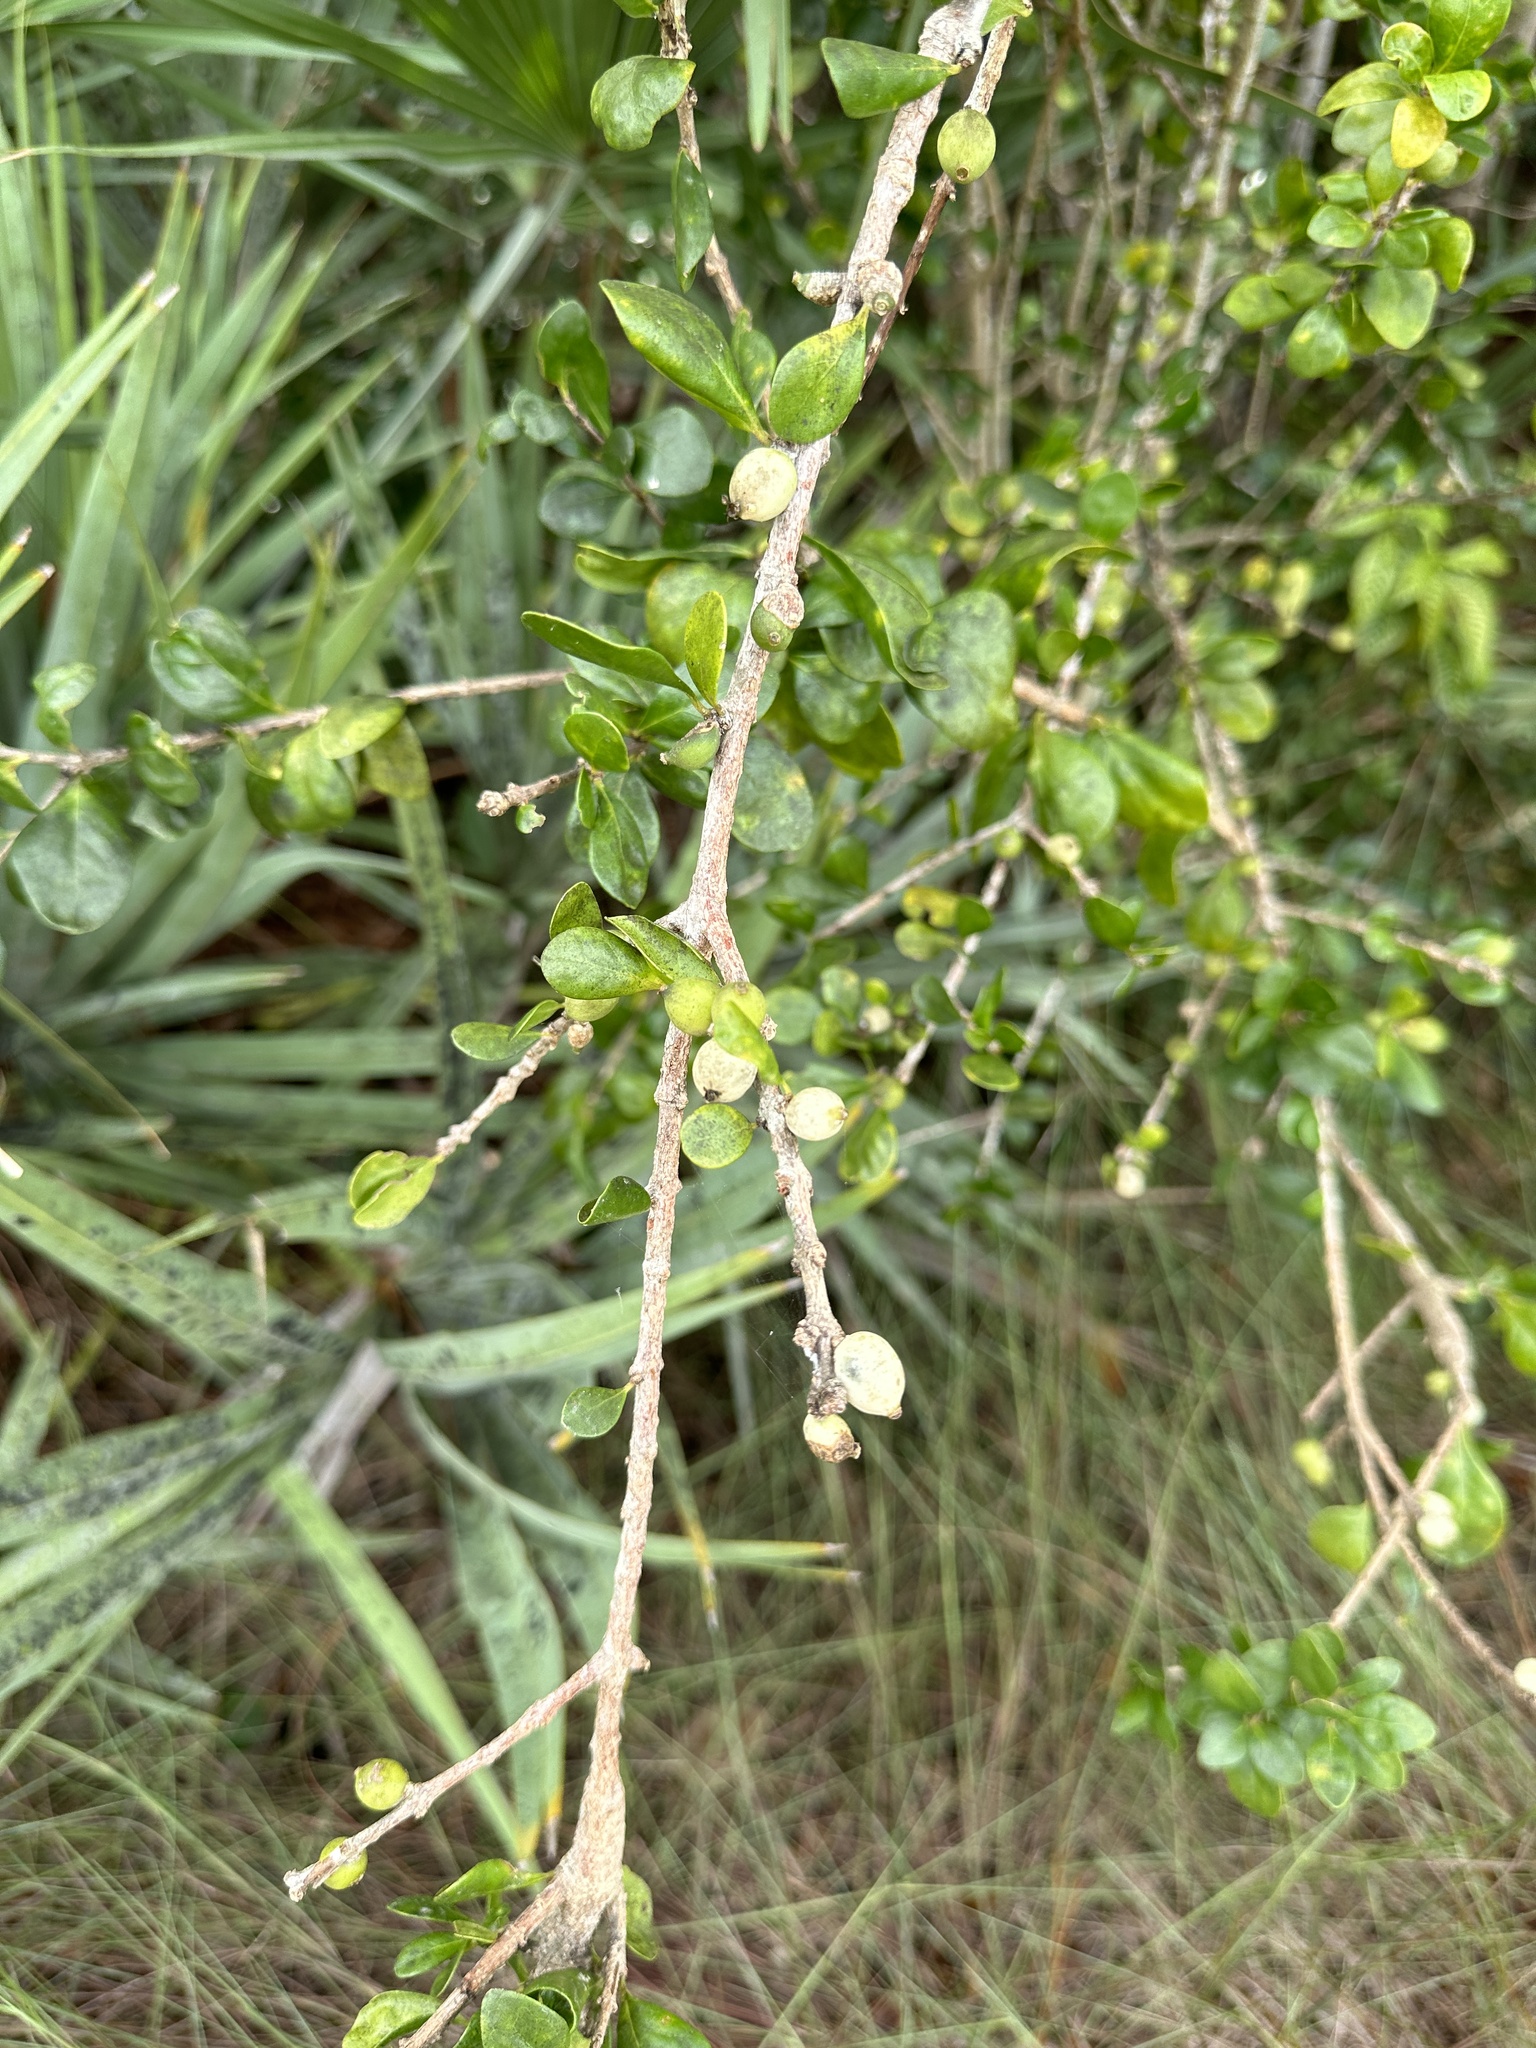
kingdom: Plantae
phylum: Tracheophyta
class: Magnoliopsida
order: Gentianales
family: Rubiaceae
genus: Randia
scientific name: Randia aculeata
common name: Inkberry
